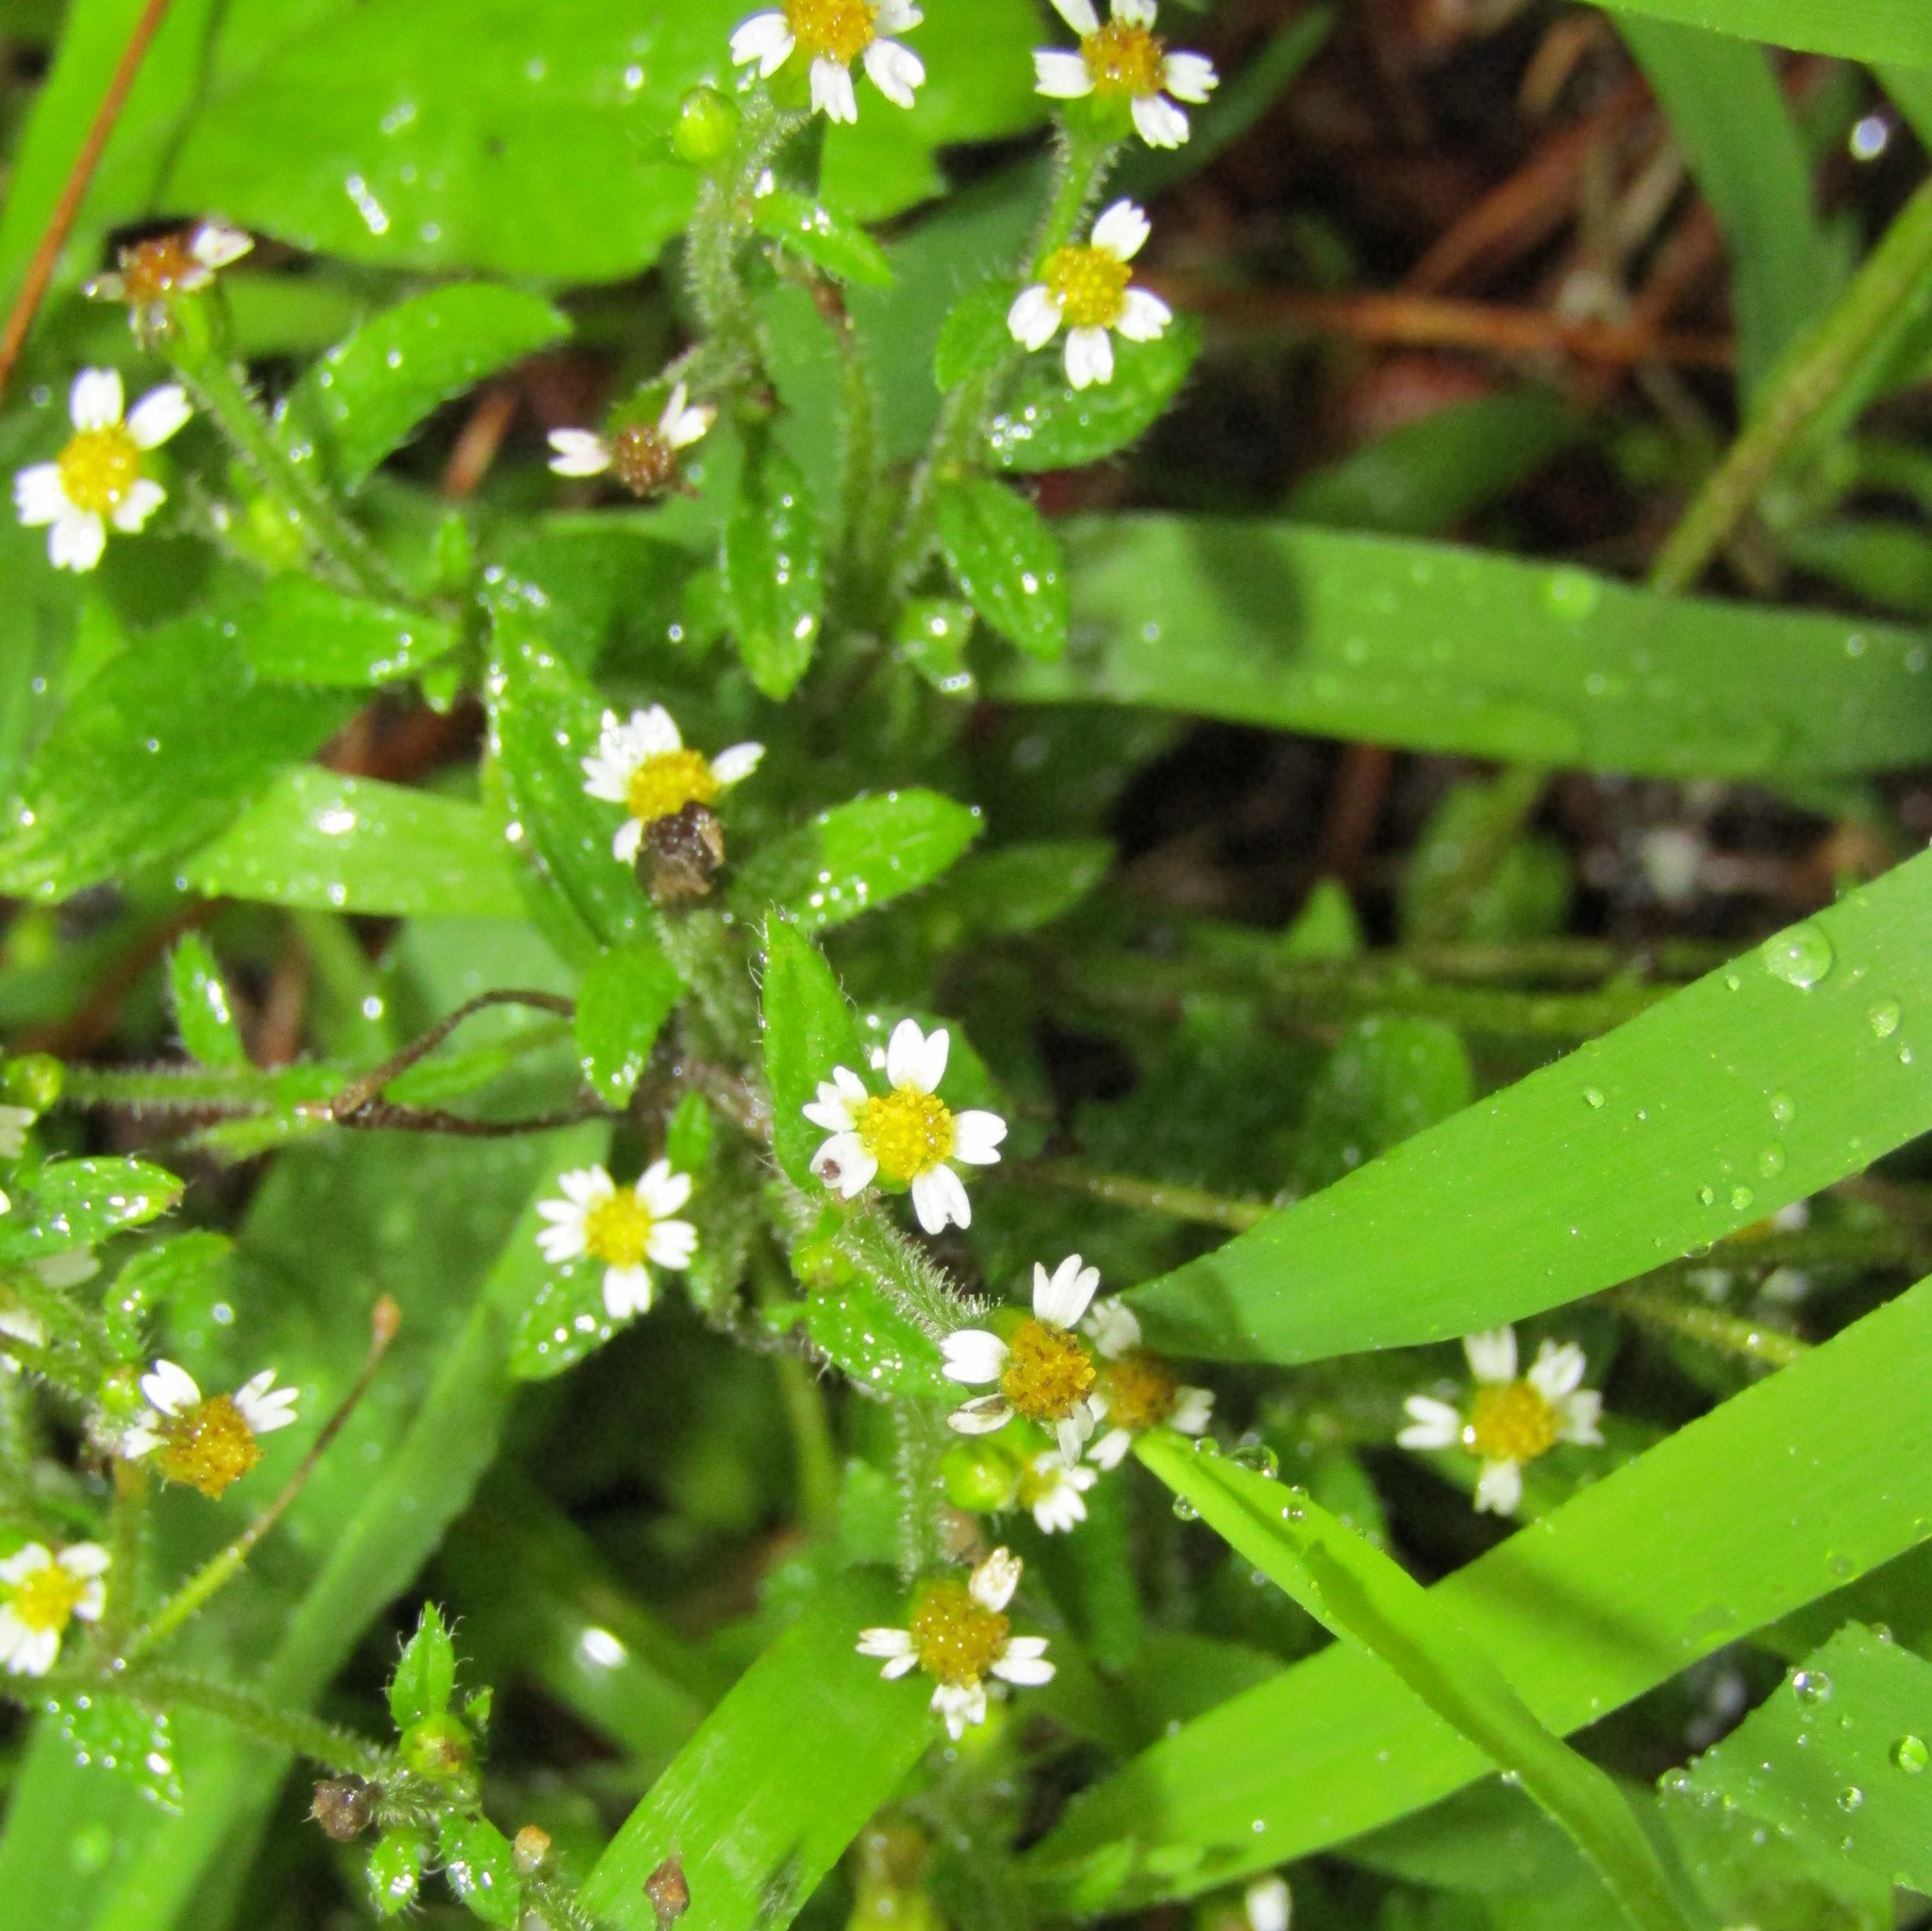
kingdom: Plantae
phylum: Tracheophyta
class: Magnoliopsida
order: Asterales
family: Asteraceae
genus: Galinsoga
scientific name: Galinsoga quadriradiata
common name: Shaggy soldier
